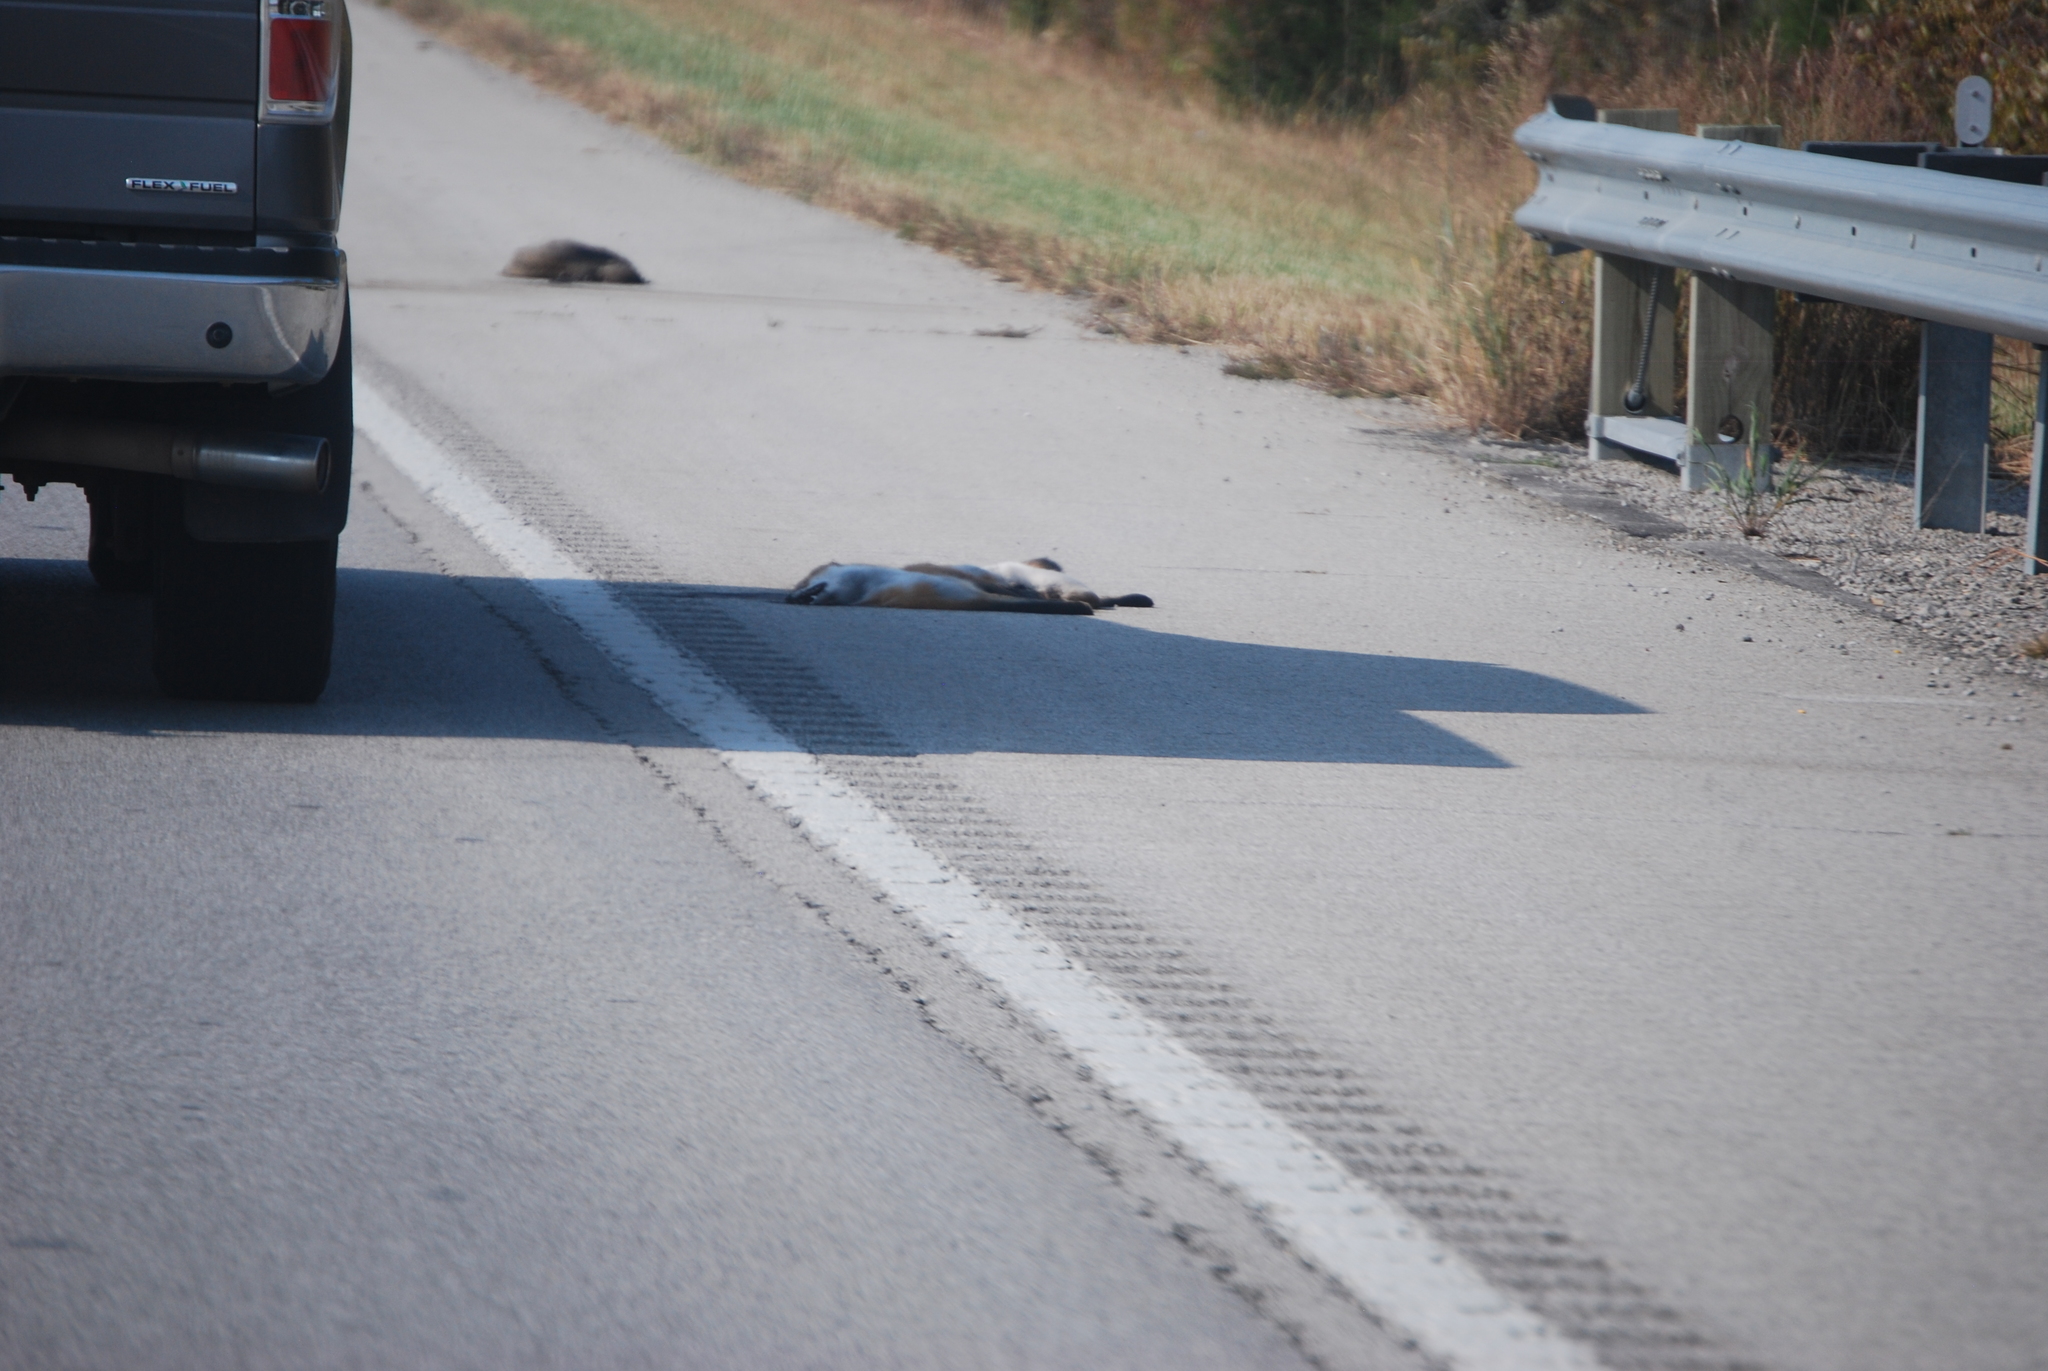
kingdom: Animalia
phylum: Chordata
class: Mammalia
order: Carnivora
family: Canidae
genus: Vulpes
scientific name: Vulpes vulpes
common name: Red fox
